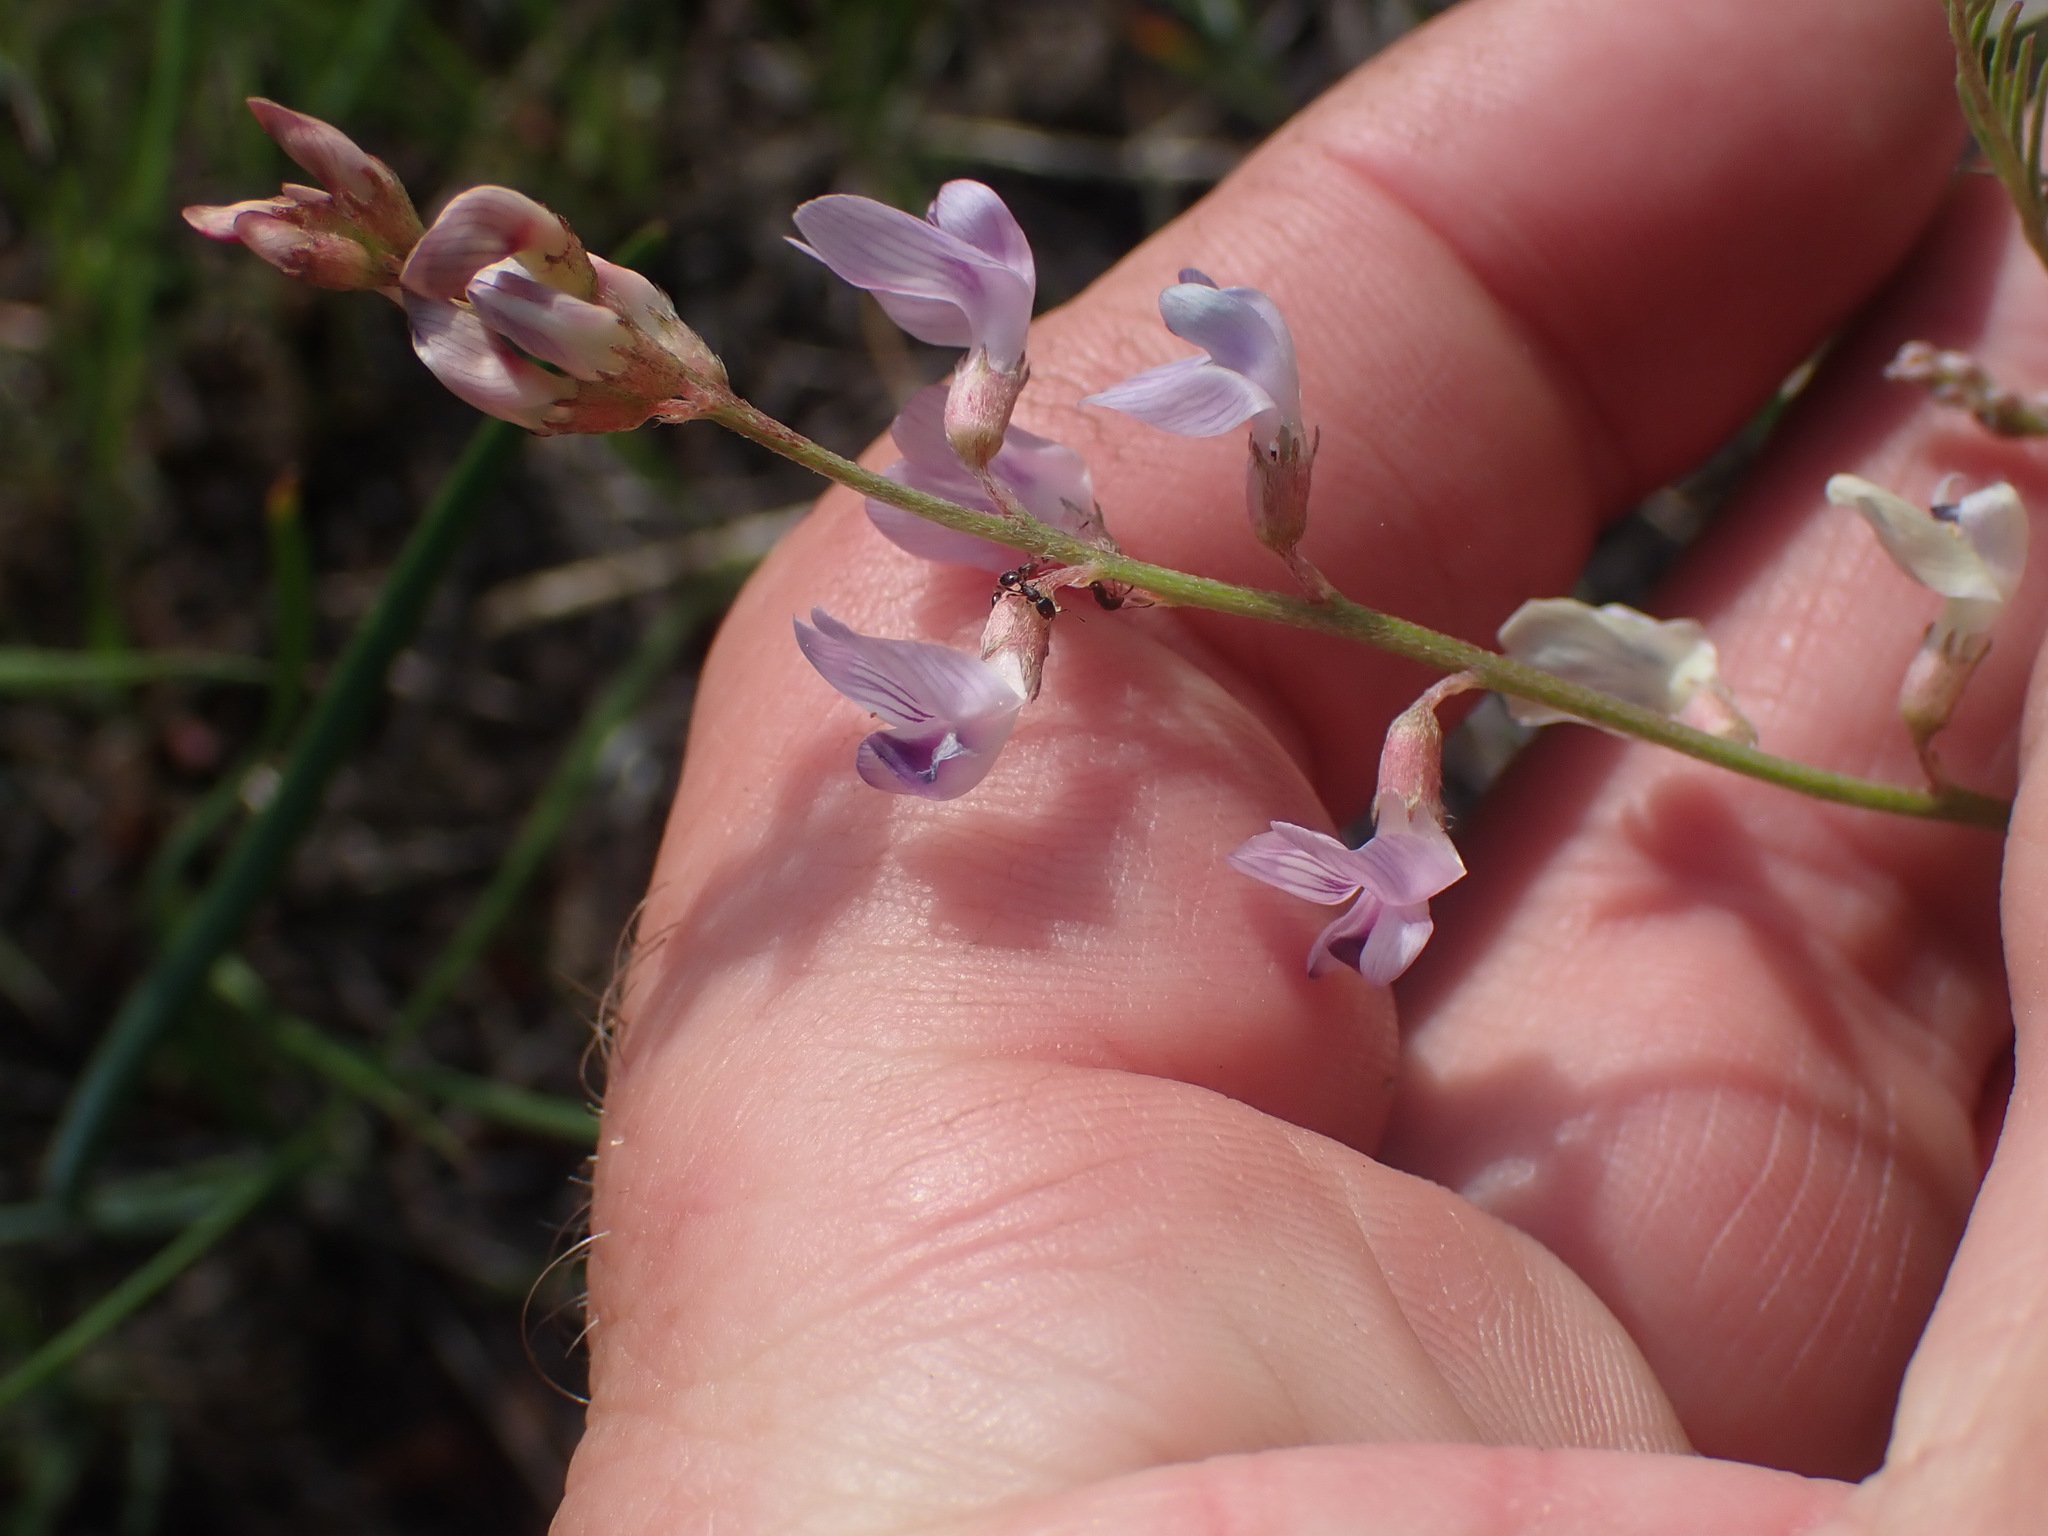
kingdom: Plantae
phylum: Tracheophyta
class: Magnoliopsida
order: Fabales
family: Fabaceae
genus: Astragalus
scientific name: Astragalus miser
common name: Timber milkvetch
